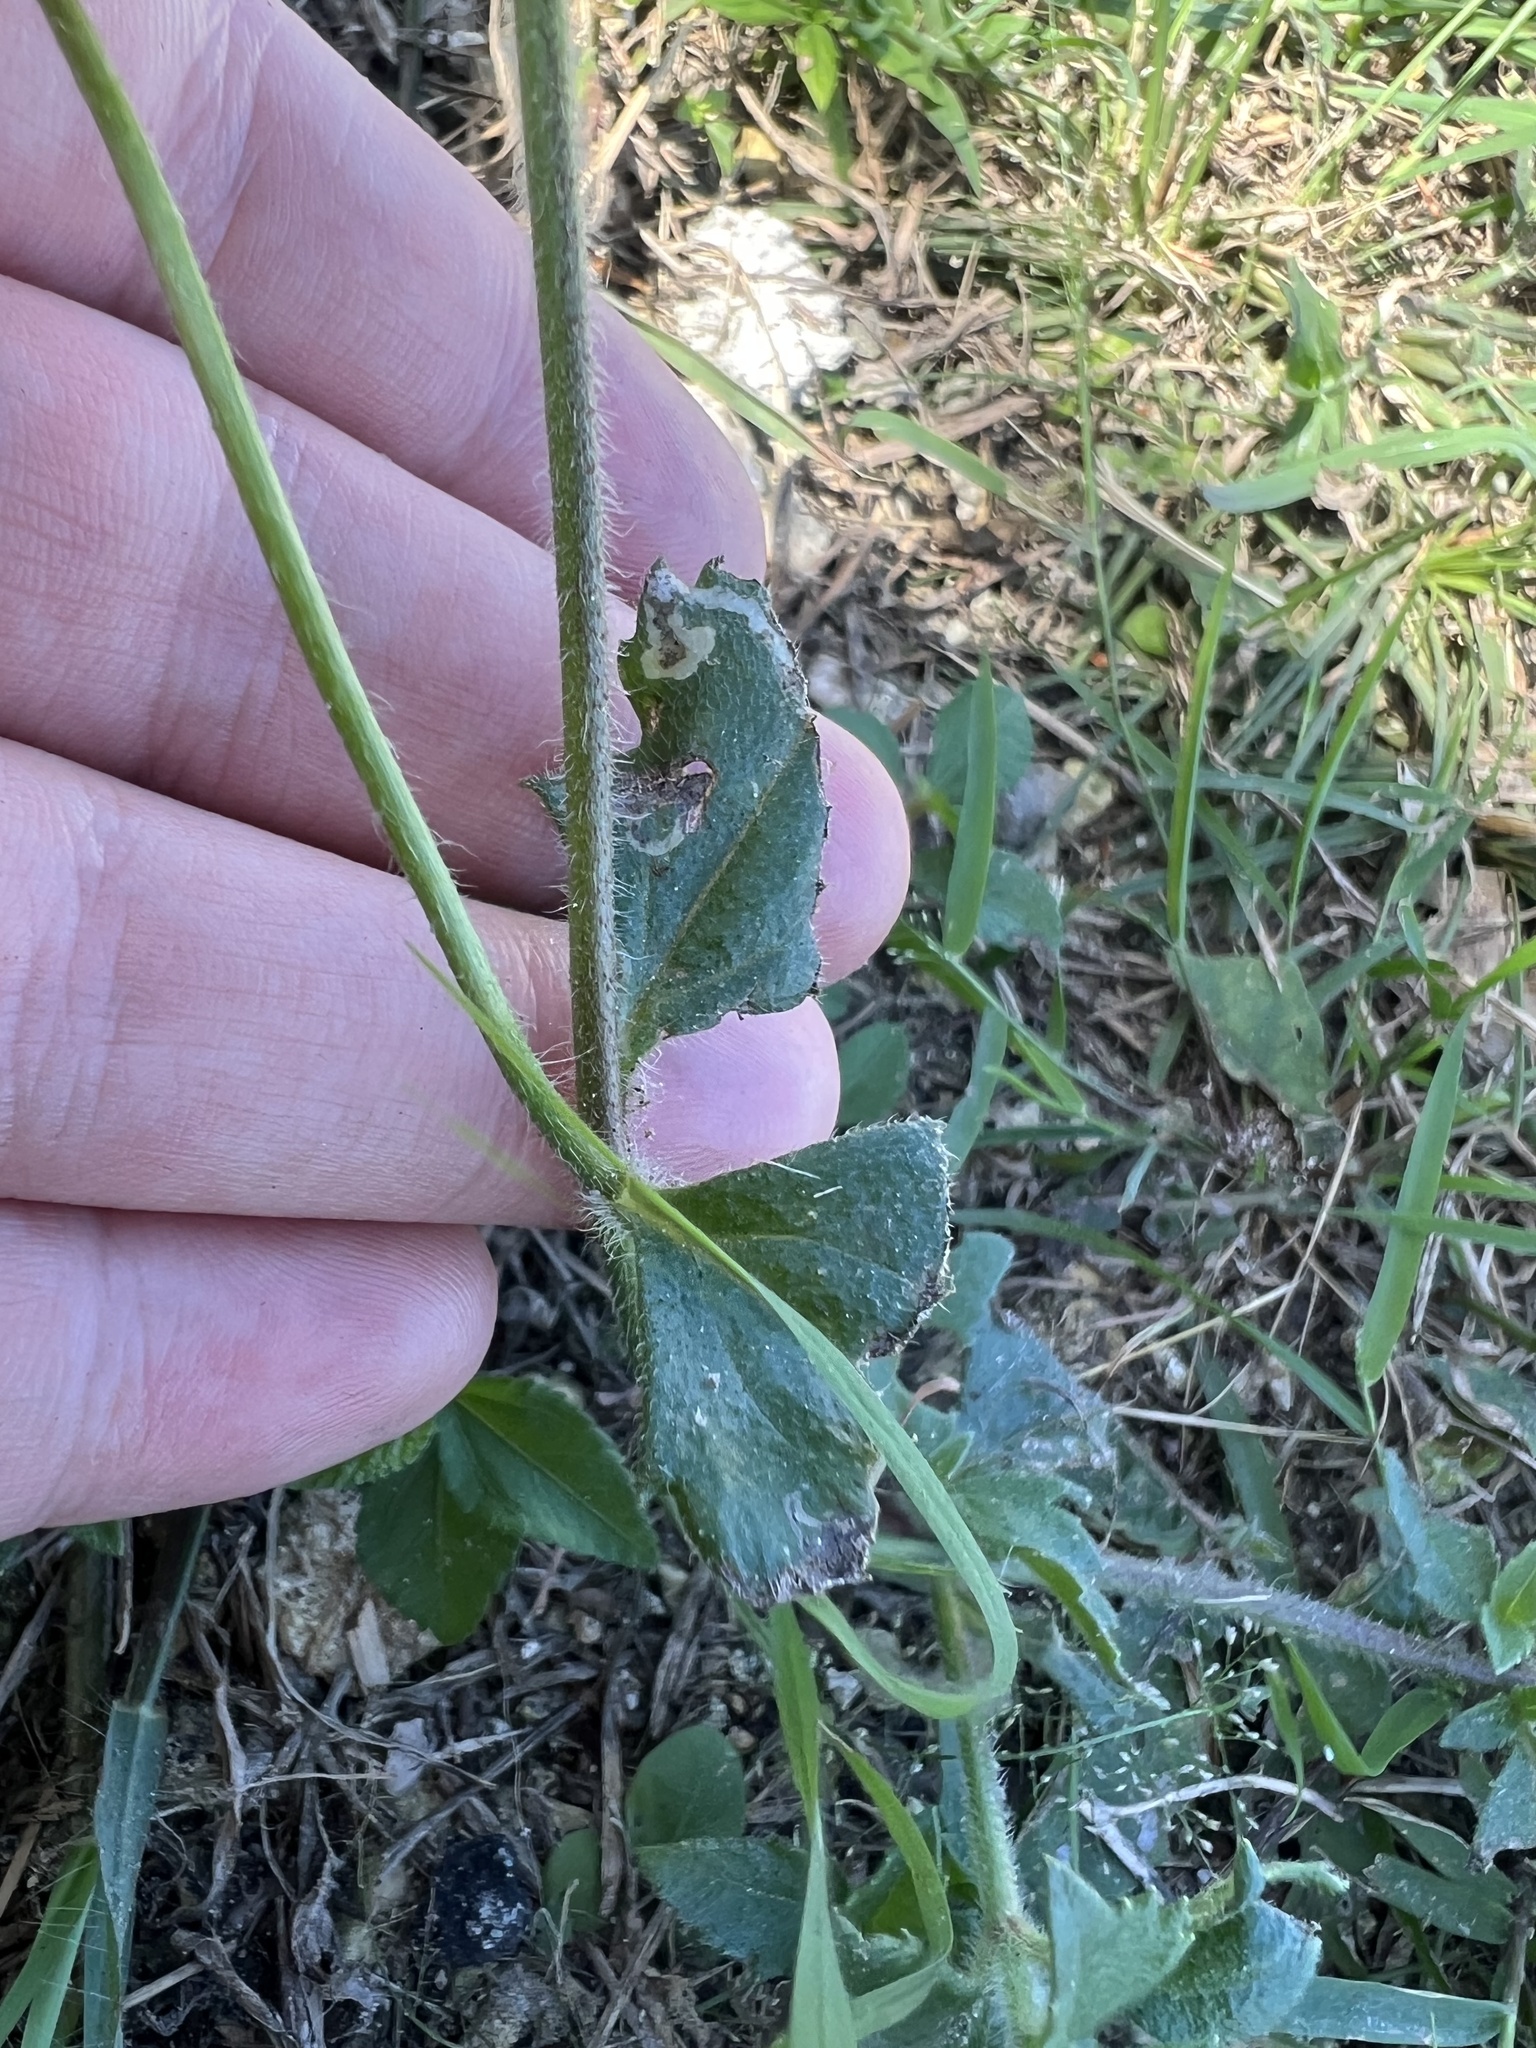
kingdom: Plantae
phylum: Tracheophyta
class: Magnoliopsida
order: Asterales
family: Asteraceae
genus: Tridax
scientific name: Tridax procumbens
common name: Coatbuttons
